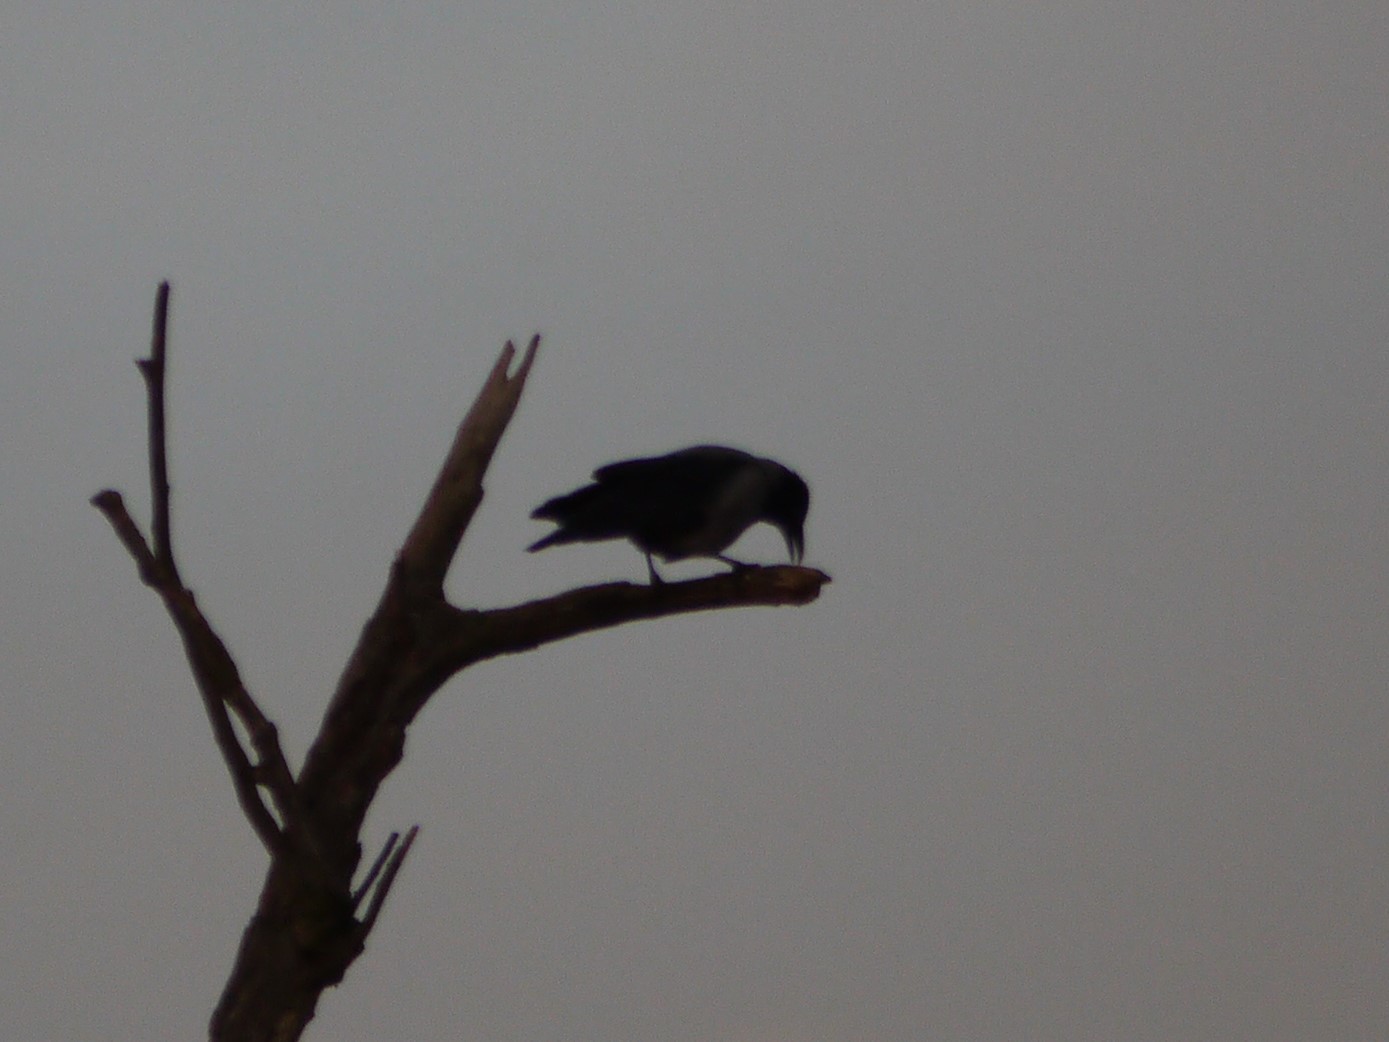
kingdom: Animalia
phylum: Chordata
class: Aves
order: Passeriformes
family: Corvidae
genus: Corvus
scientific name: Corvus cornix
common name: Hooded crow
